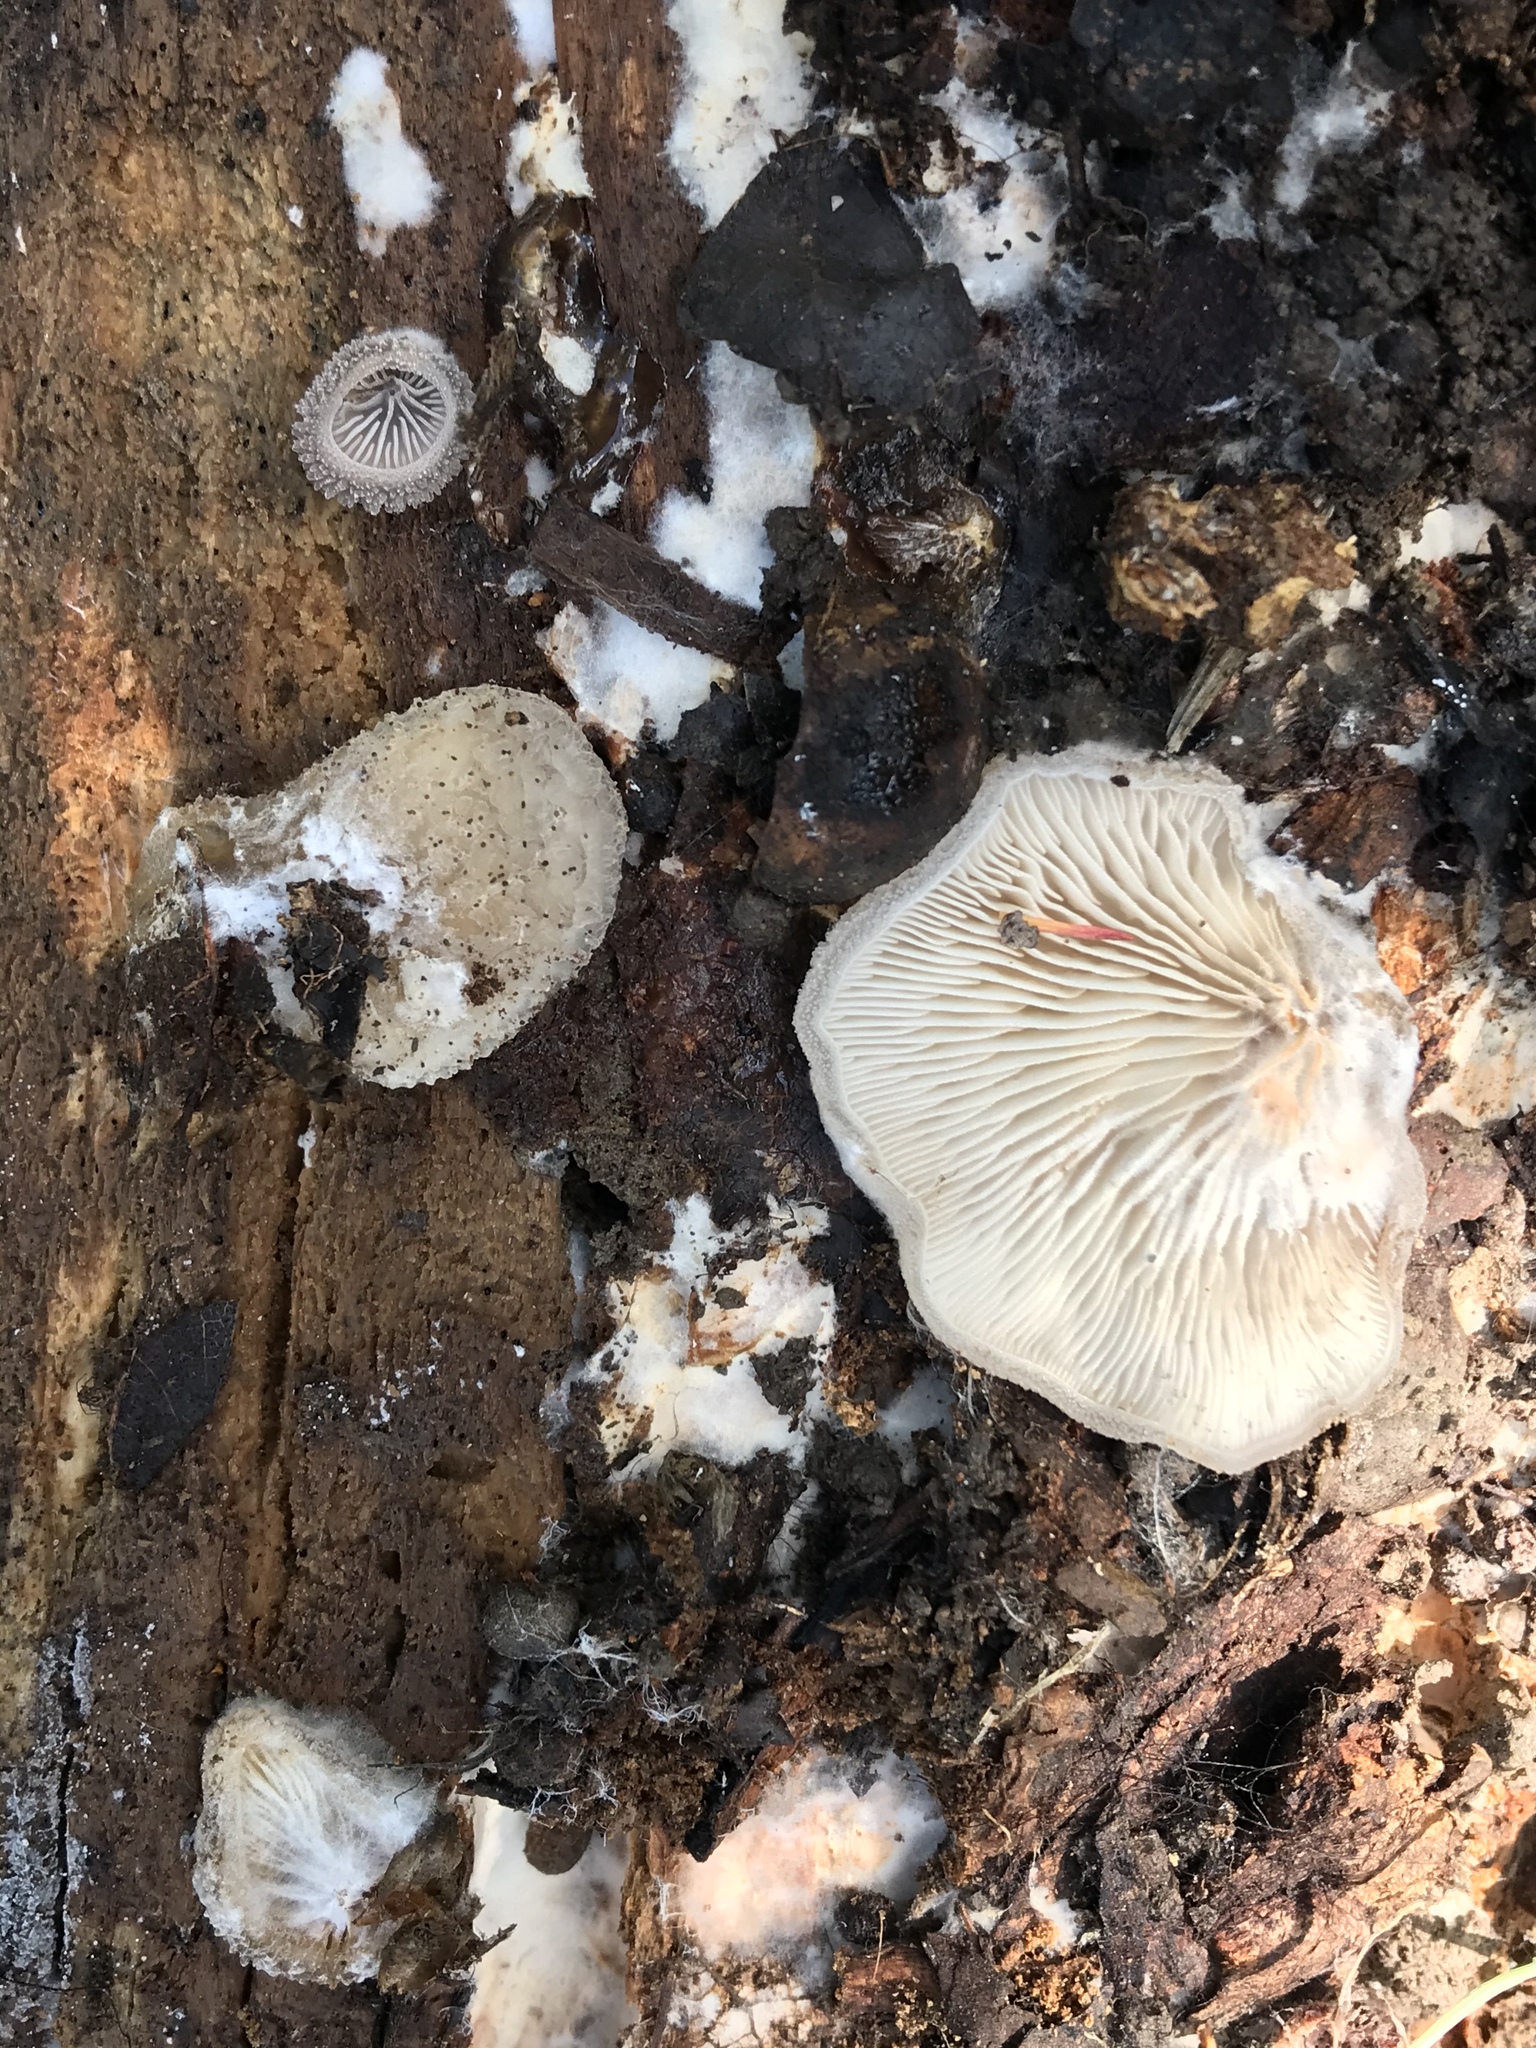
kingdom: Fungi
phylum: Basidiomycota
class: Agaricomycetes
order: Agaricales
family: Pleurotaceae
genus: Hohenbuehelia
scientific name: Hohenbuehelia mastrucata
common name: Woolly oyster
